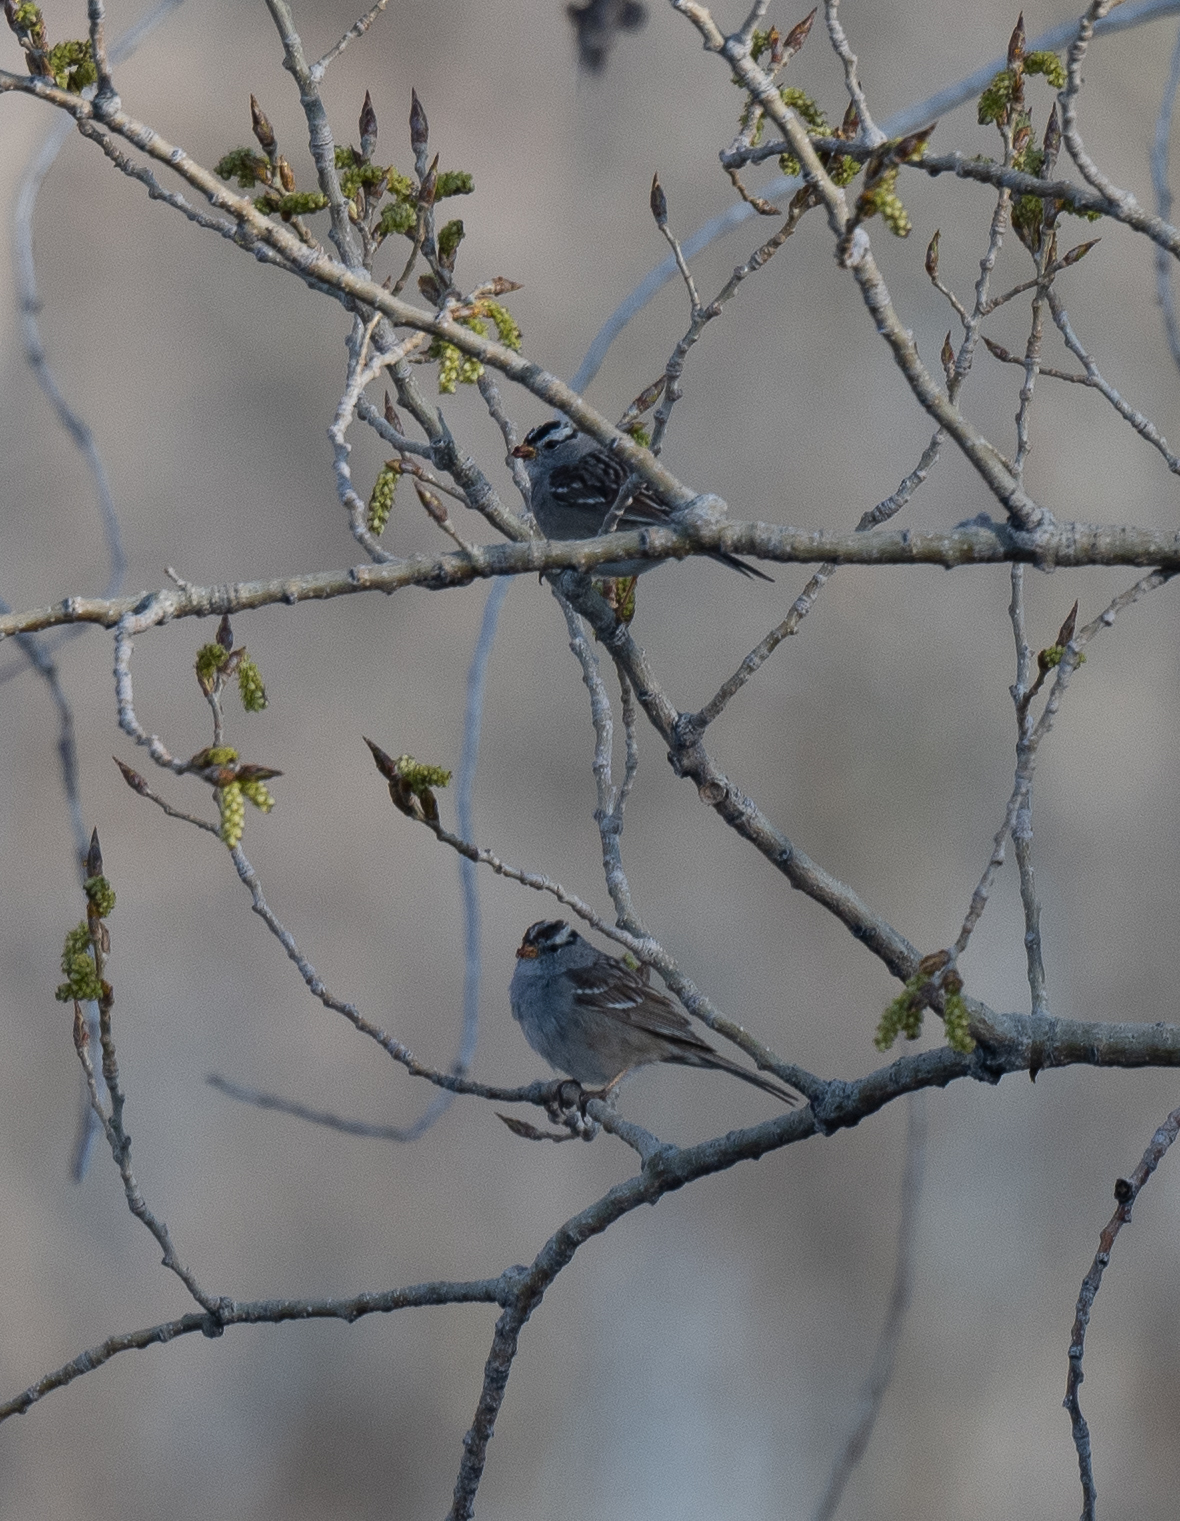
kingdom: Animalia
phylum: Chordata
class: Aves
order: Passeriformes
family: Passerellidae
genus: Zonotrichia
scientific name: Zonotrichia leucophrys
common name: White-crowned sparrow
